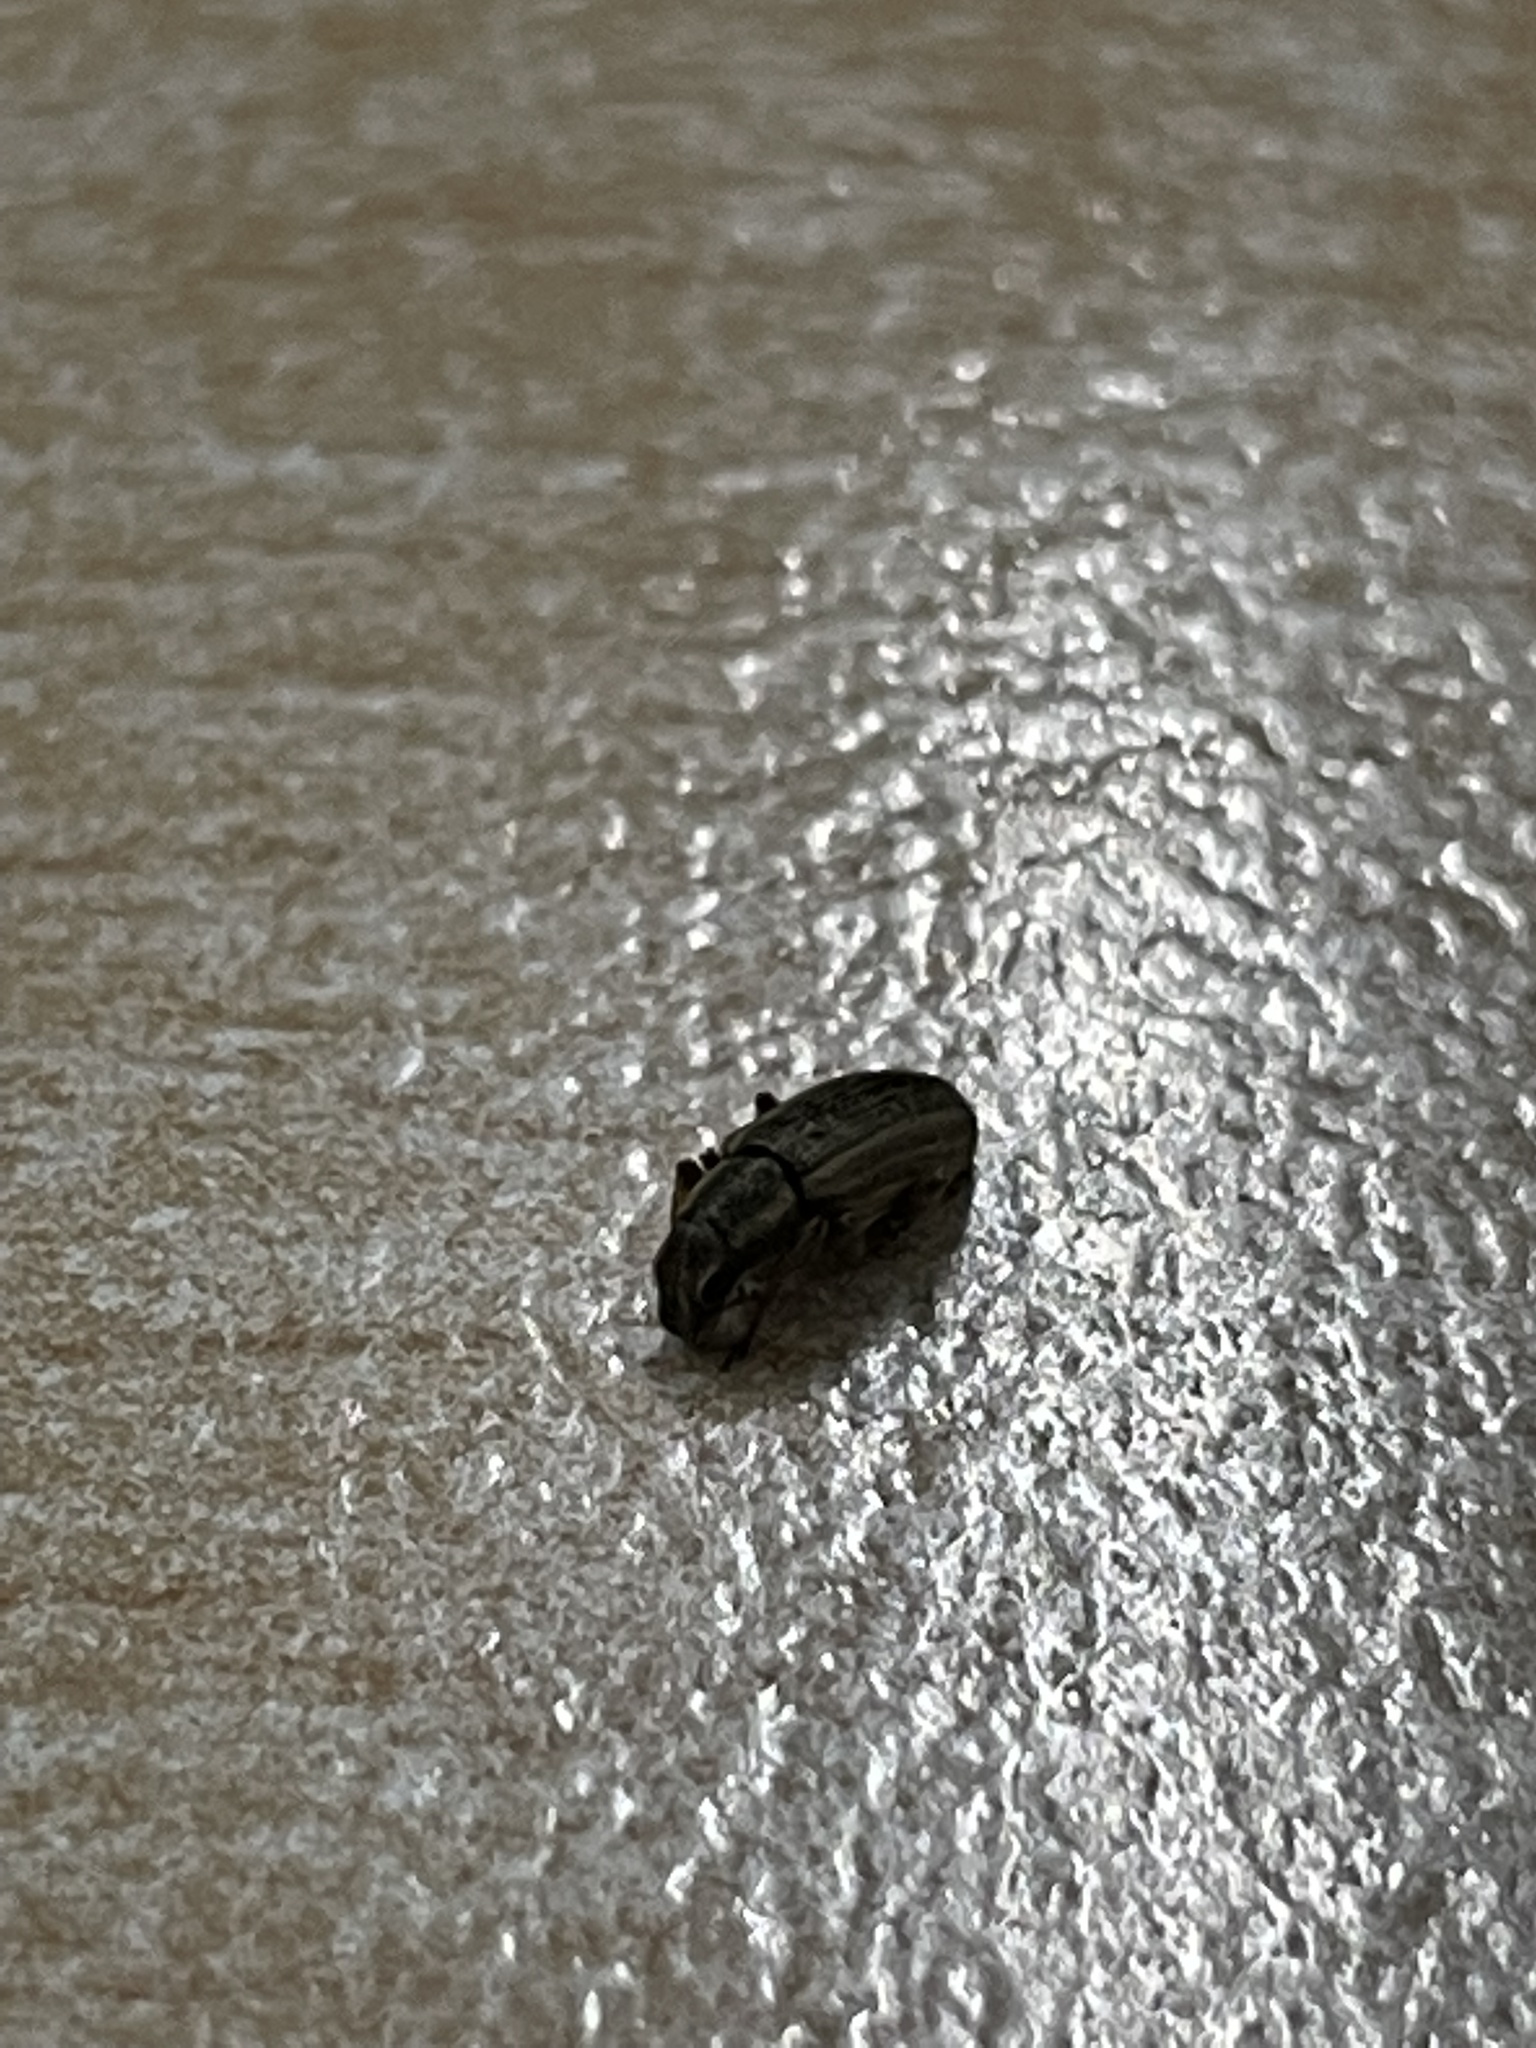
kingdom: Animalia
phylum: Arthropoda
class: Insecta
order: Coleoptera
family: Curculionidae
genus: Sitona
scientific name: Sitona lineatus
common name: Weevil
